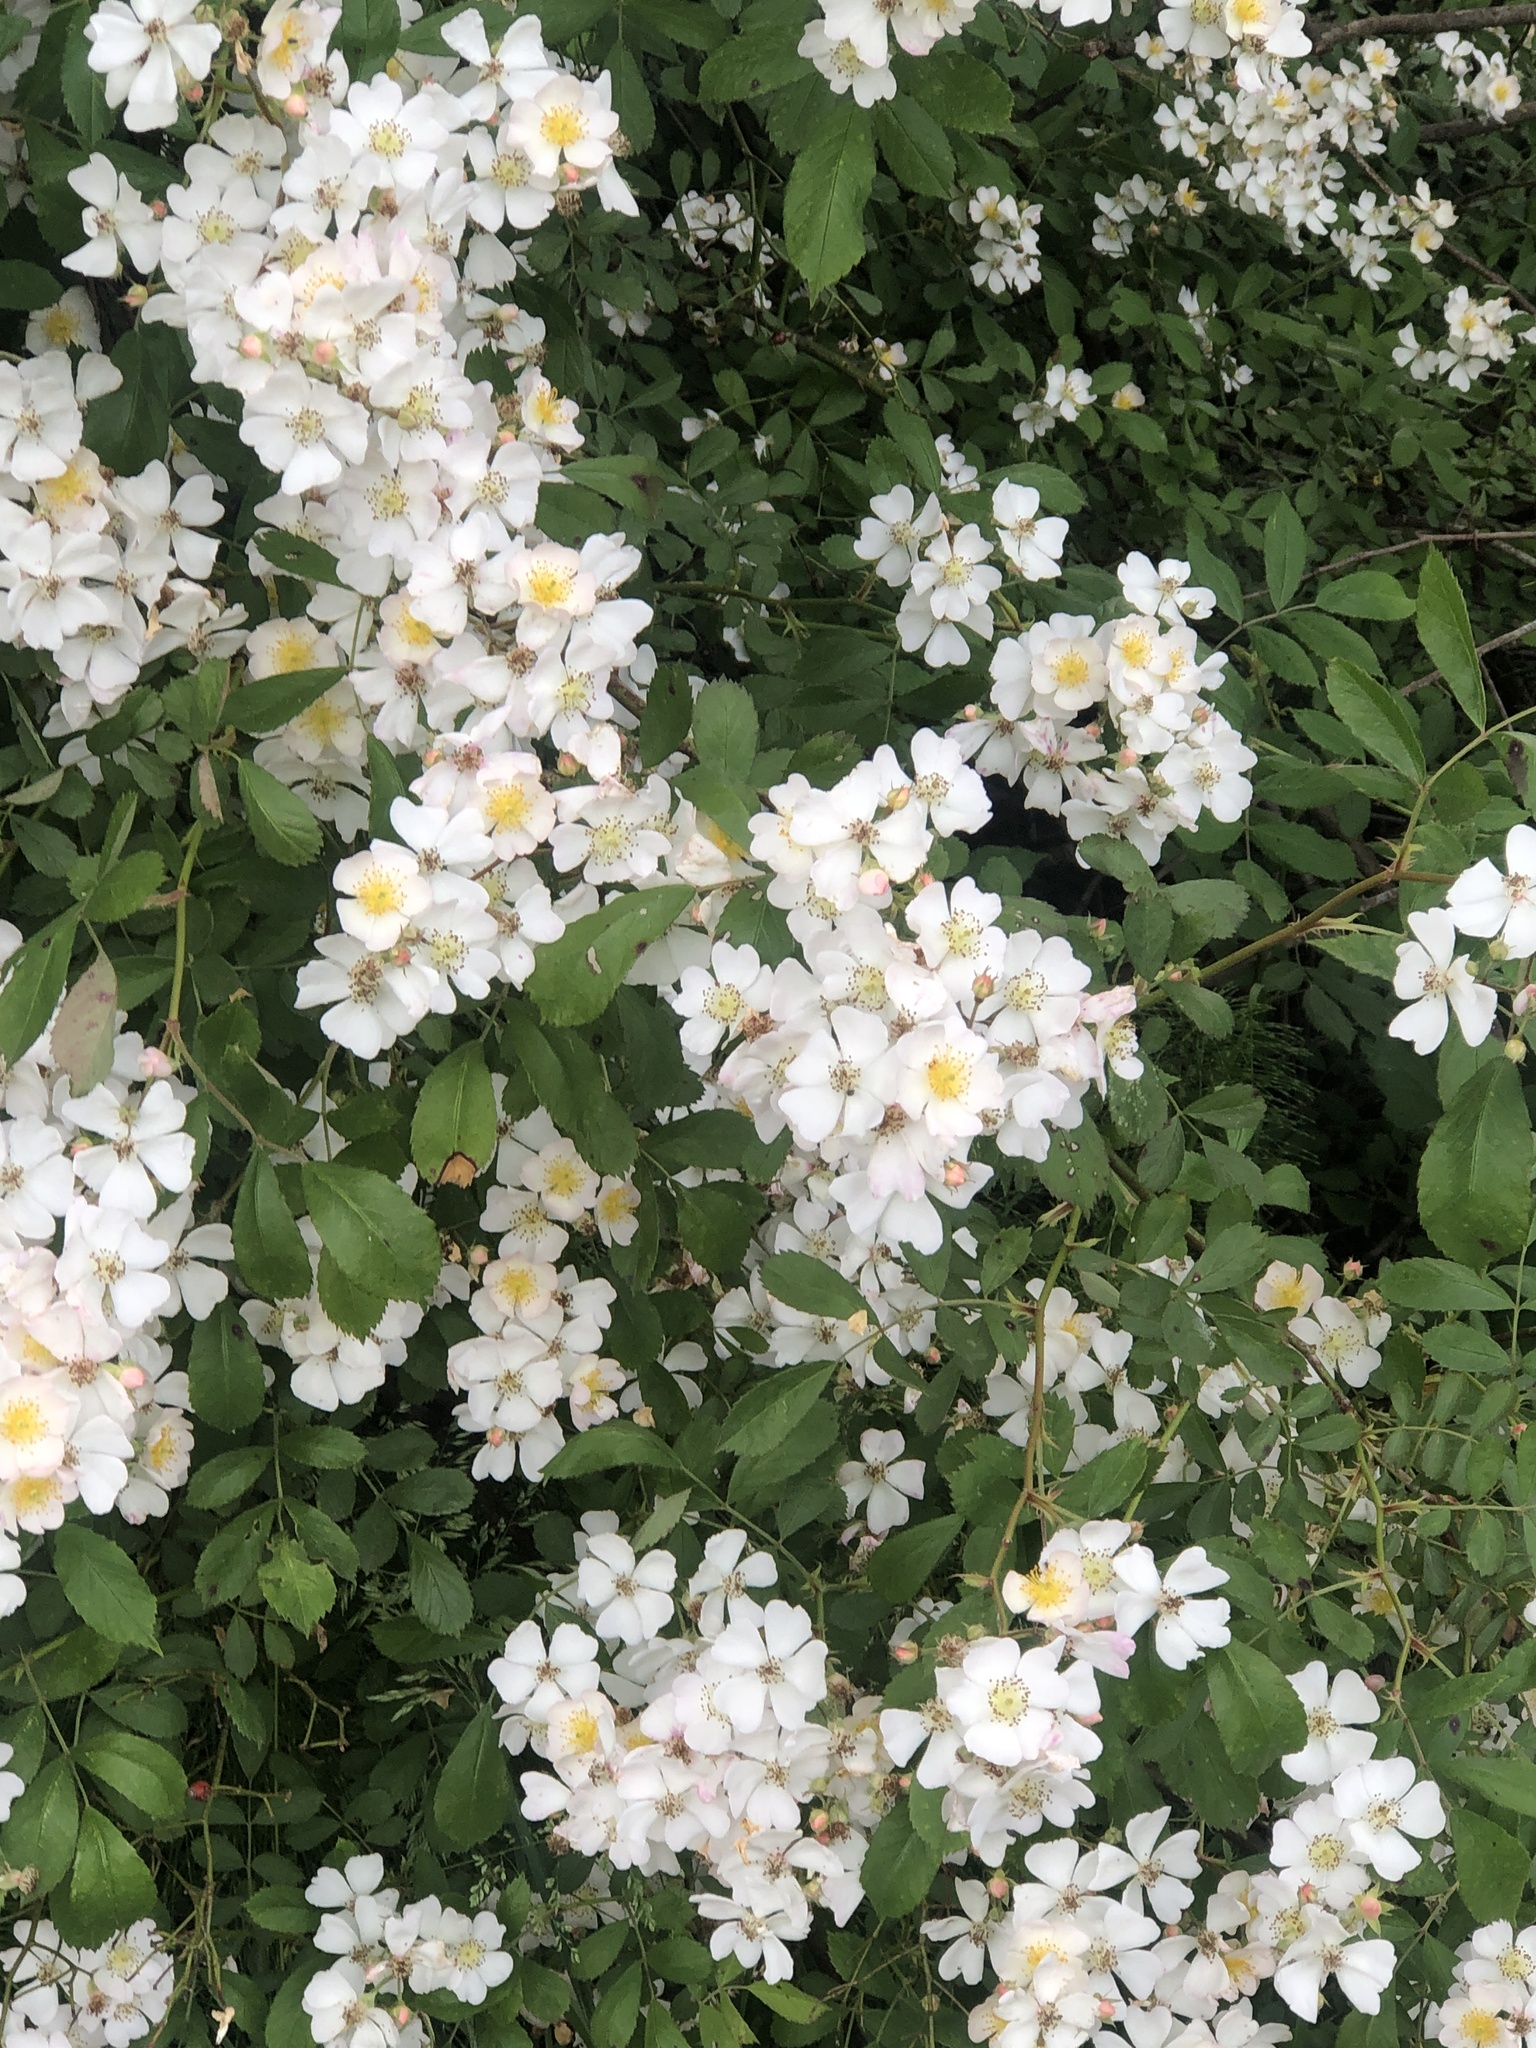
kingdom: Plantae
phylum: Tracheophyta
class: Magnoliopsida
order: Rosales
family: Rosaceae
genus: Rosa
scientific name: Rosa multiflora
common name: Multiflora rose
